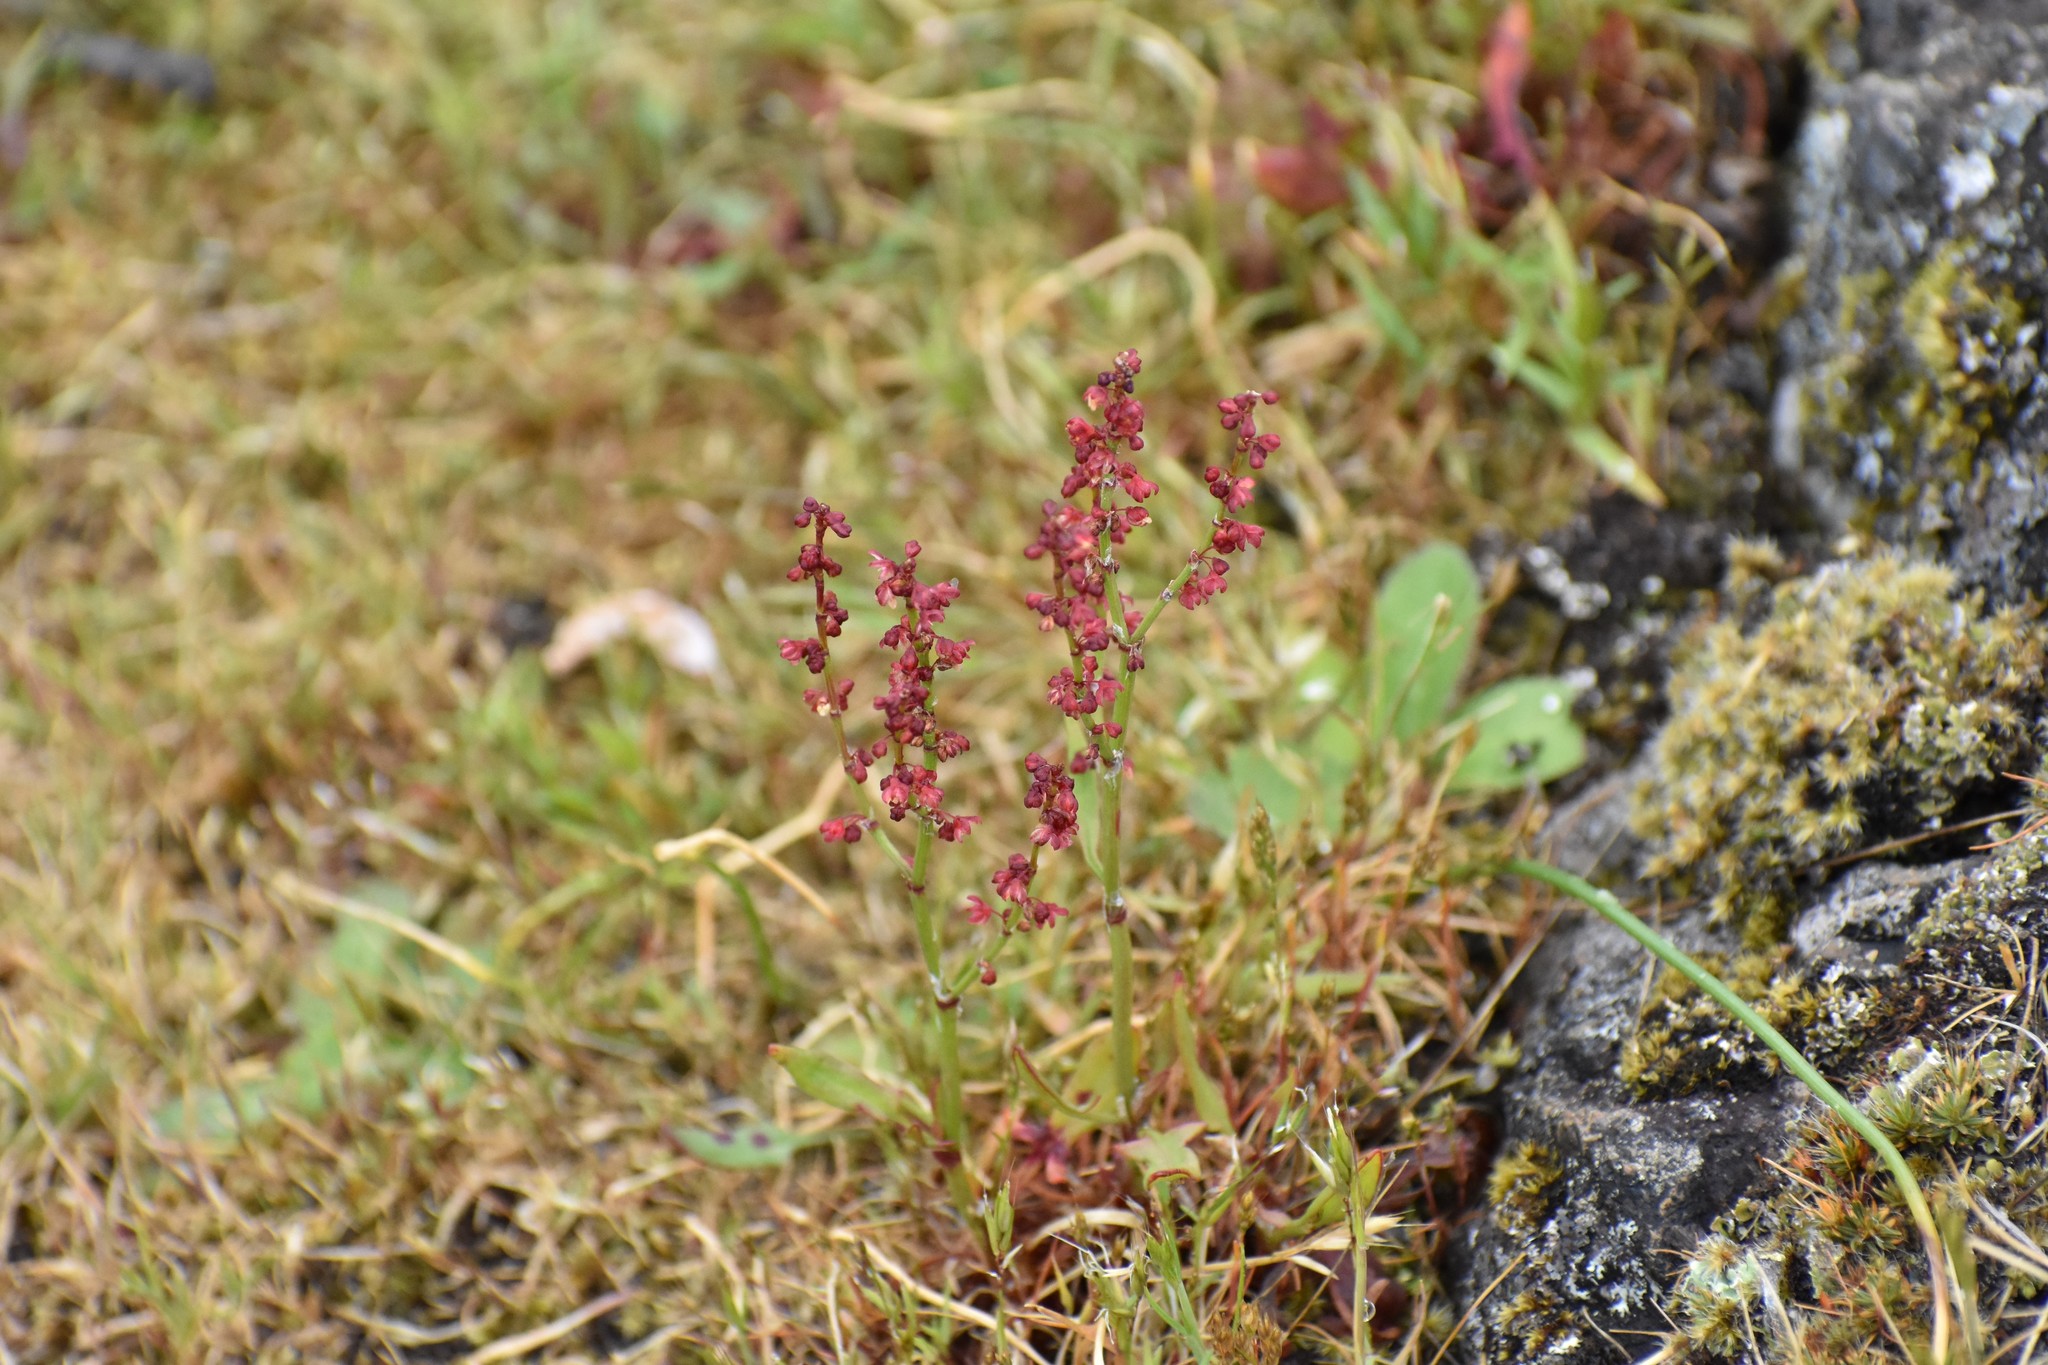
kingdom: Plantae
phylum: Tracheophyta
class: Magnoliopsida
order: Caryophyllales
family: Polygonaceae
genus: Rumex
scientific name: Rumex acetosella
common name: Common sheep sorrel
